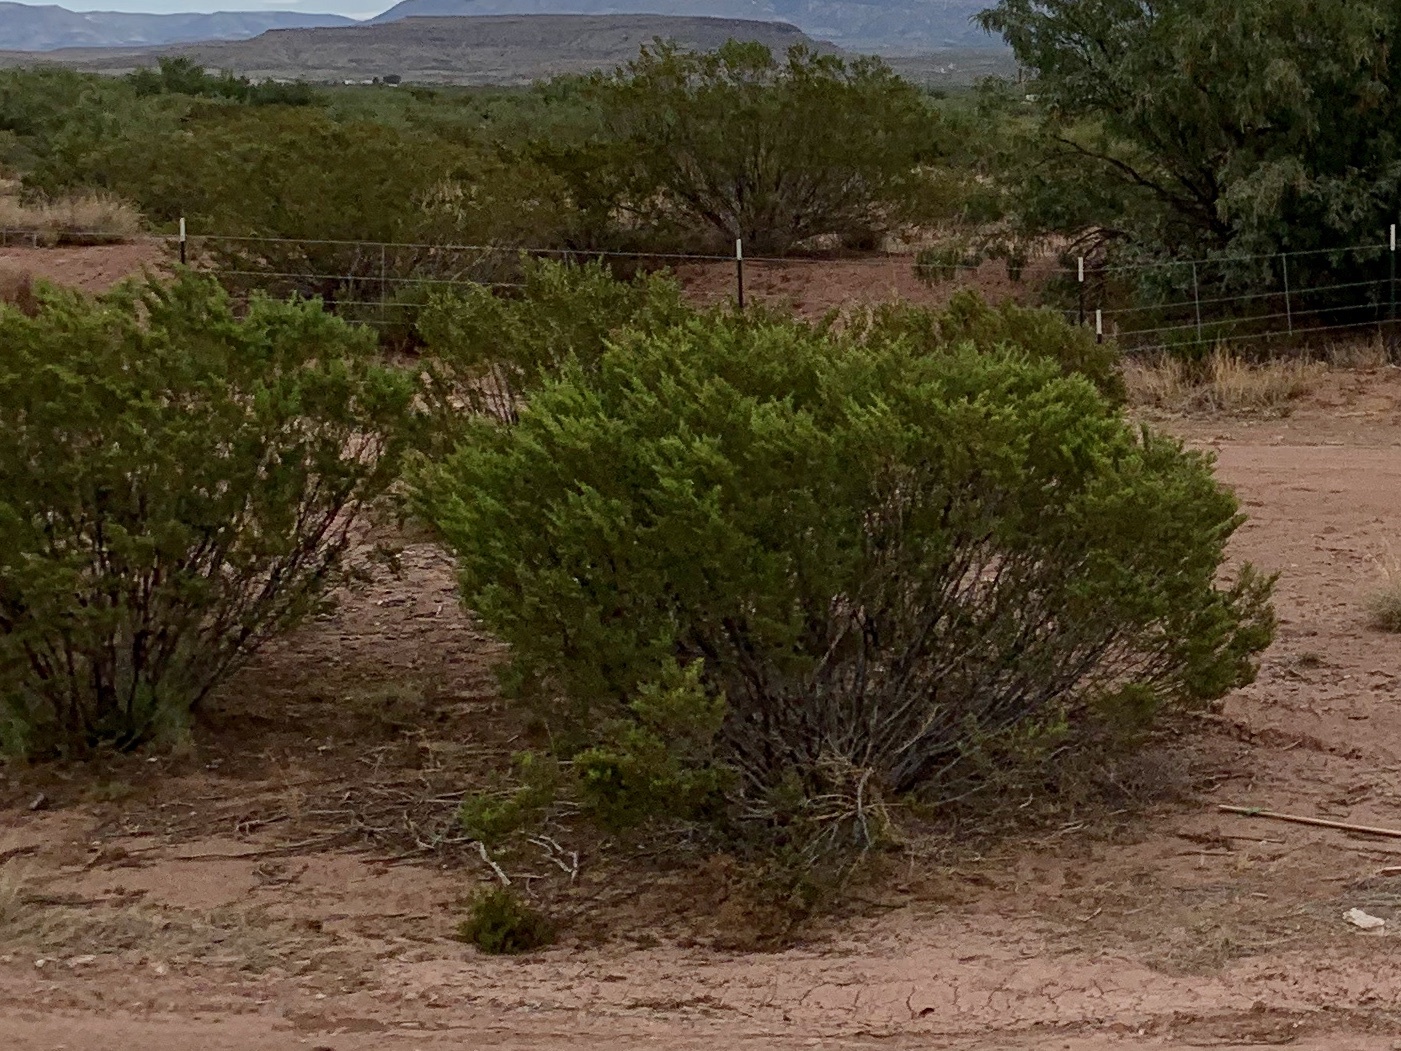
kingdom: Plantae
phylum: Tracheophyta
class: Magnoliopsida
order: Zygophyllales
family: Zygophyllaceae
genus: Larrea
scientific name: Larrea tridentata
